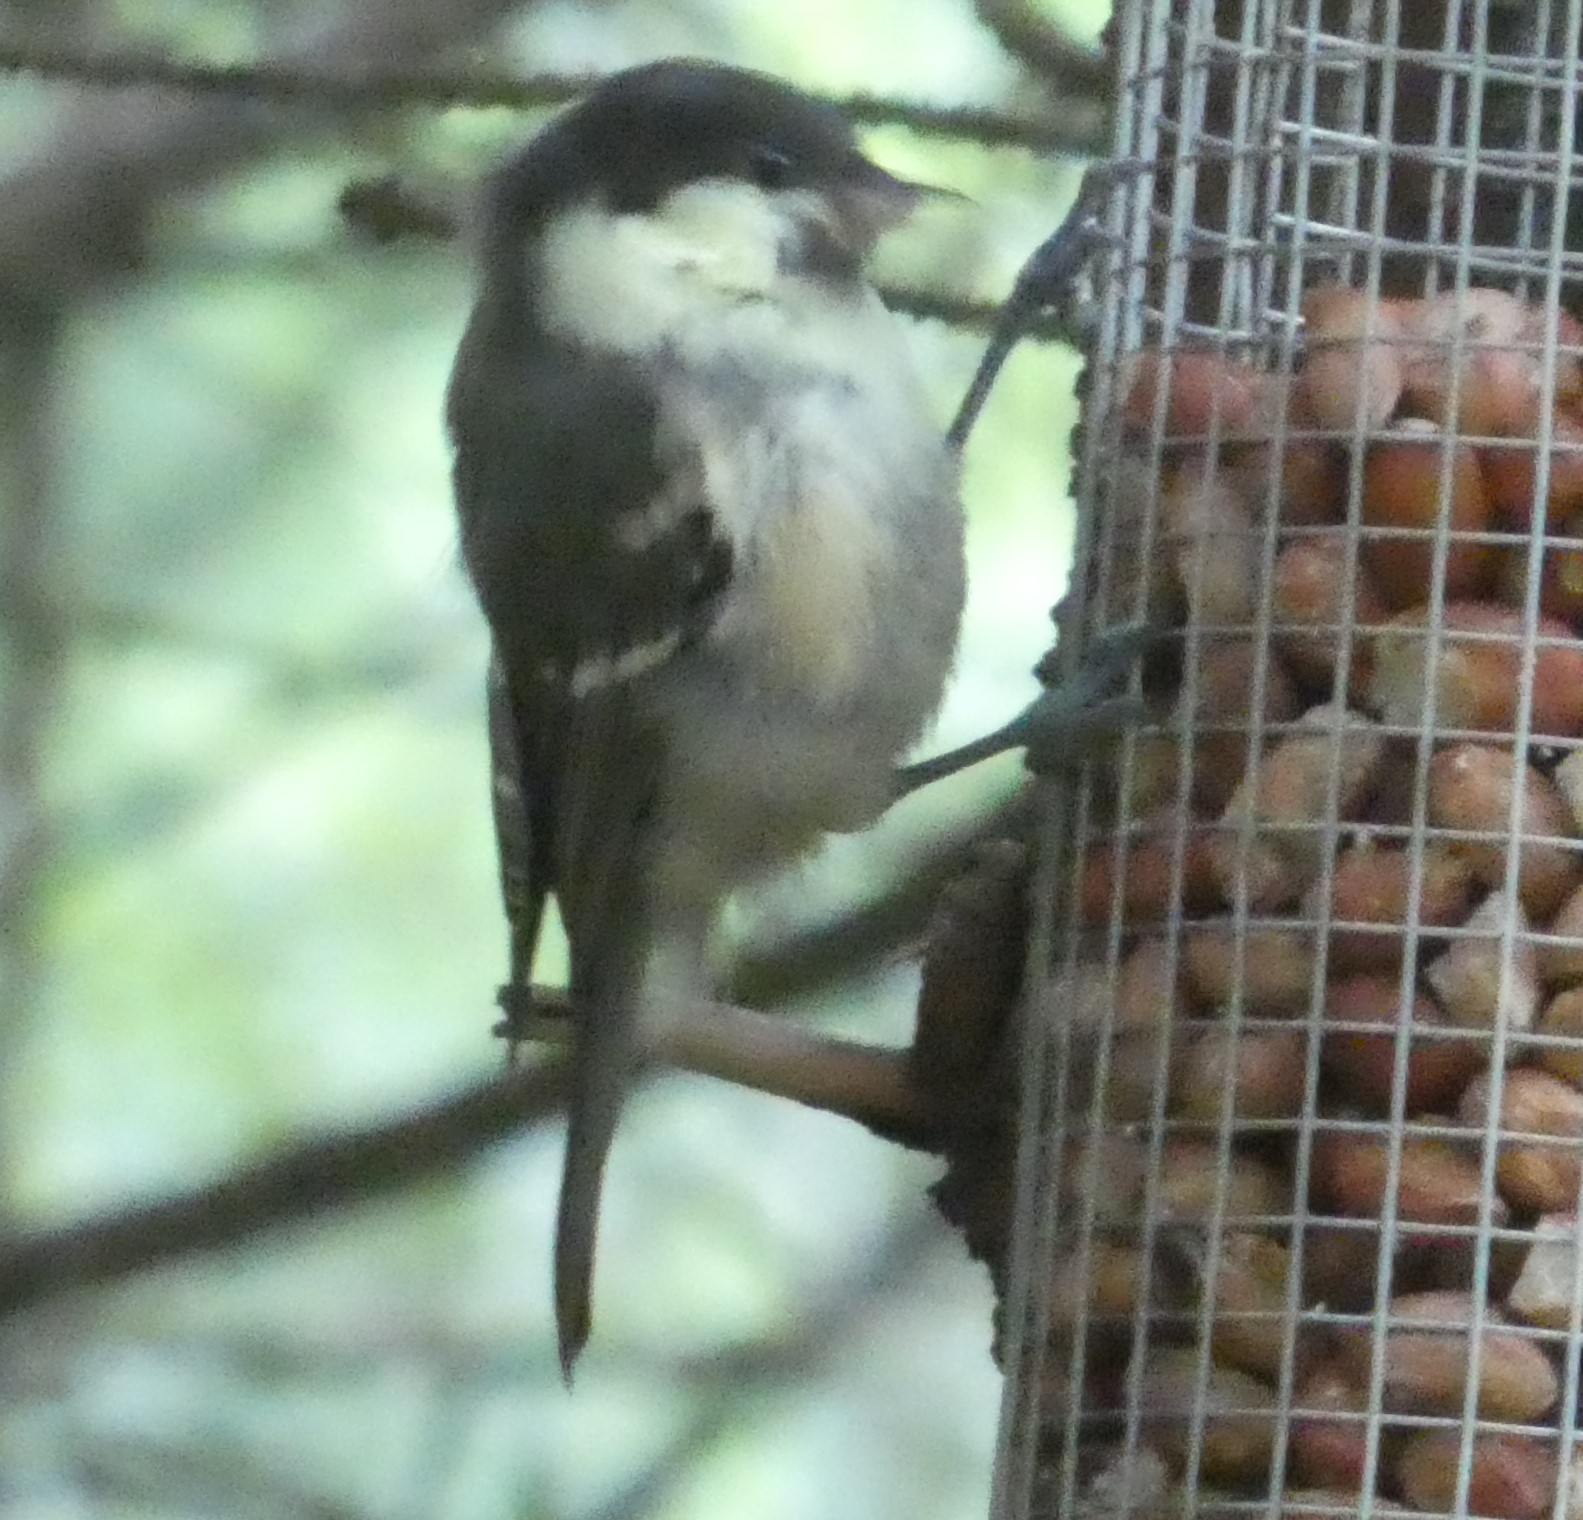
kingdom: Animalia
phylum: Chordata
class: Aves
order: Passeriformes
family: Paridae
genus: Periparus
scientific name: Periparus ater
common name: Coal tit
